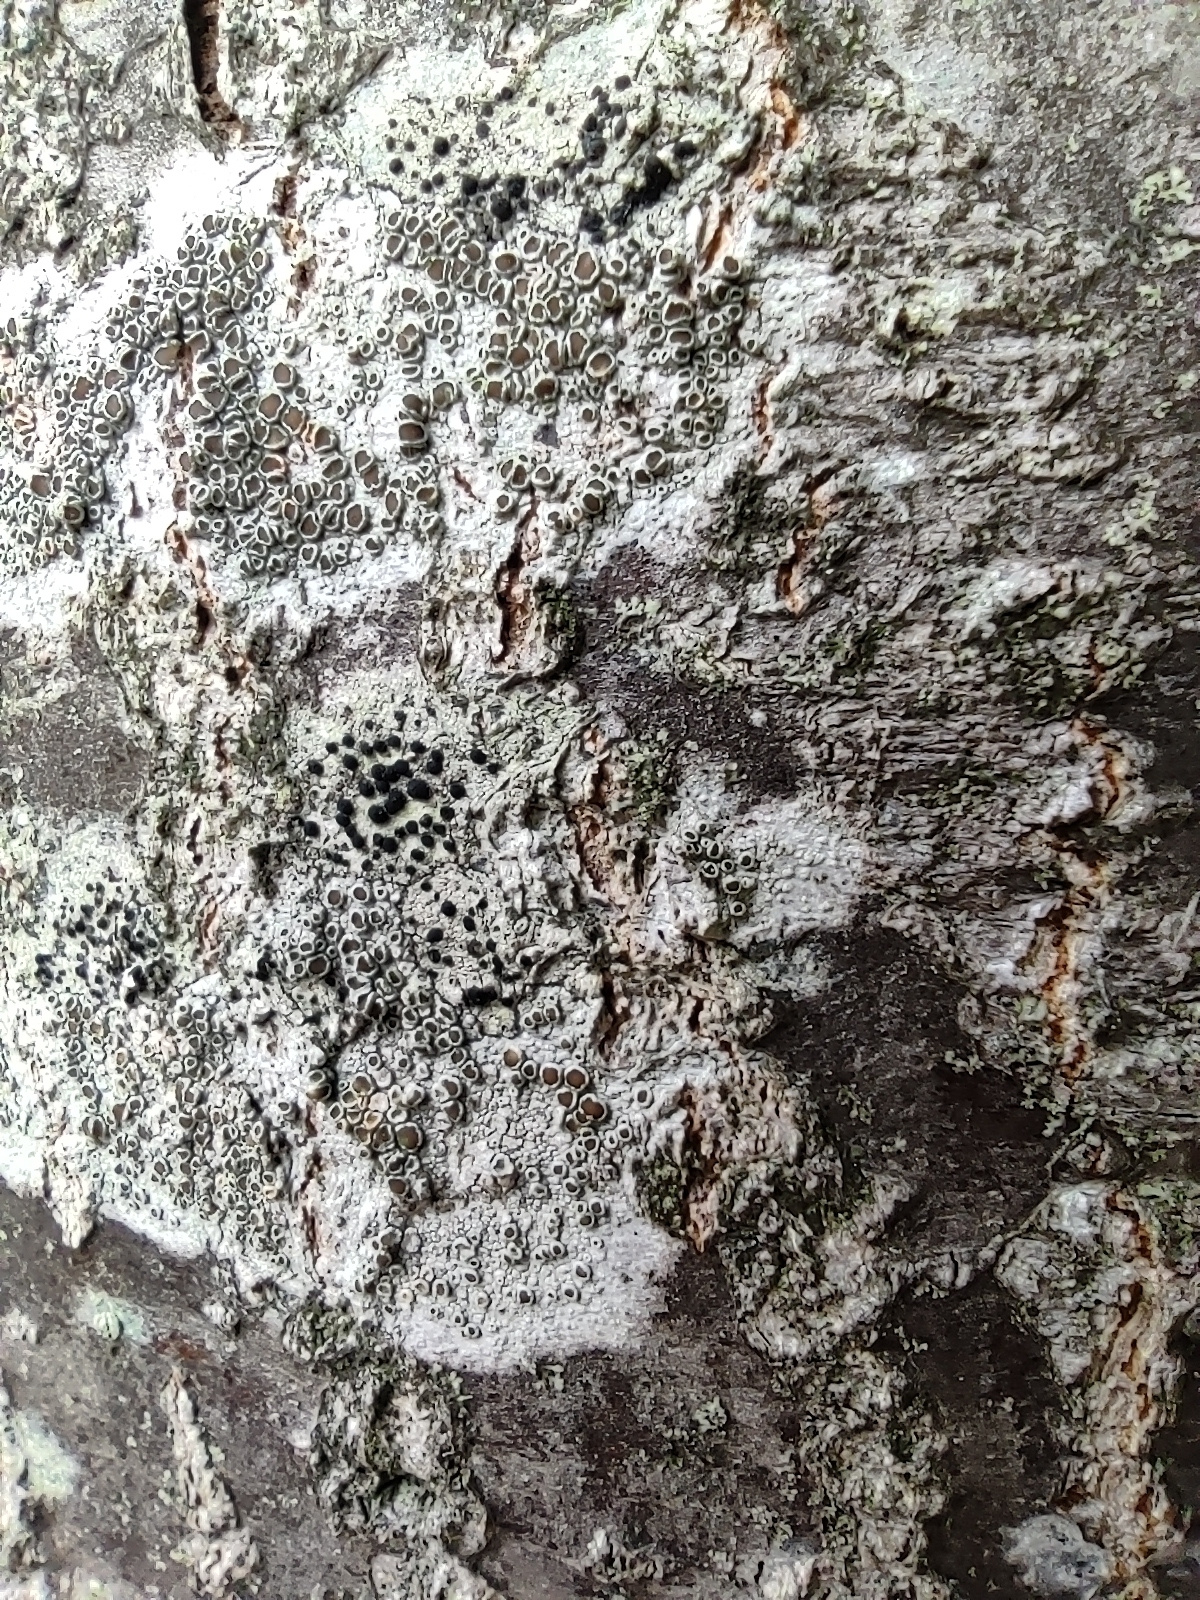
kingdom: Fungi
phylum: Ascomycota
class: Lecanoromycetes
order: Lecanorales
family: Lecanoraceae
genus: Lecidella
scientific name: Lecidella elaeochroma
